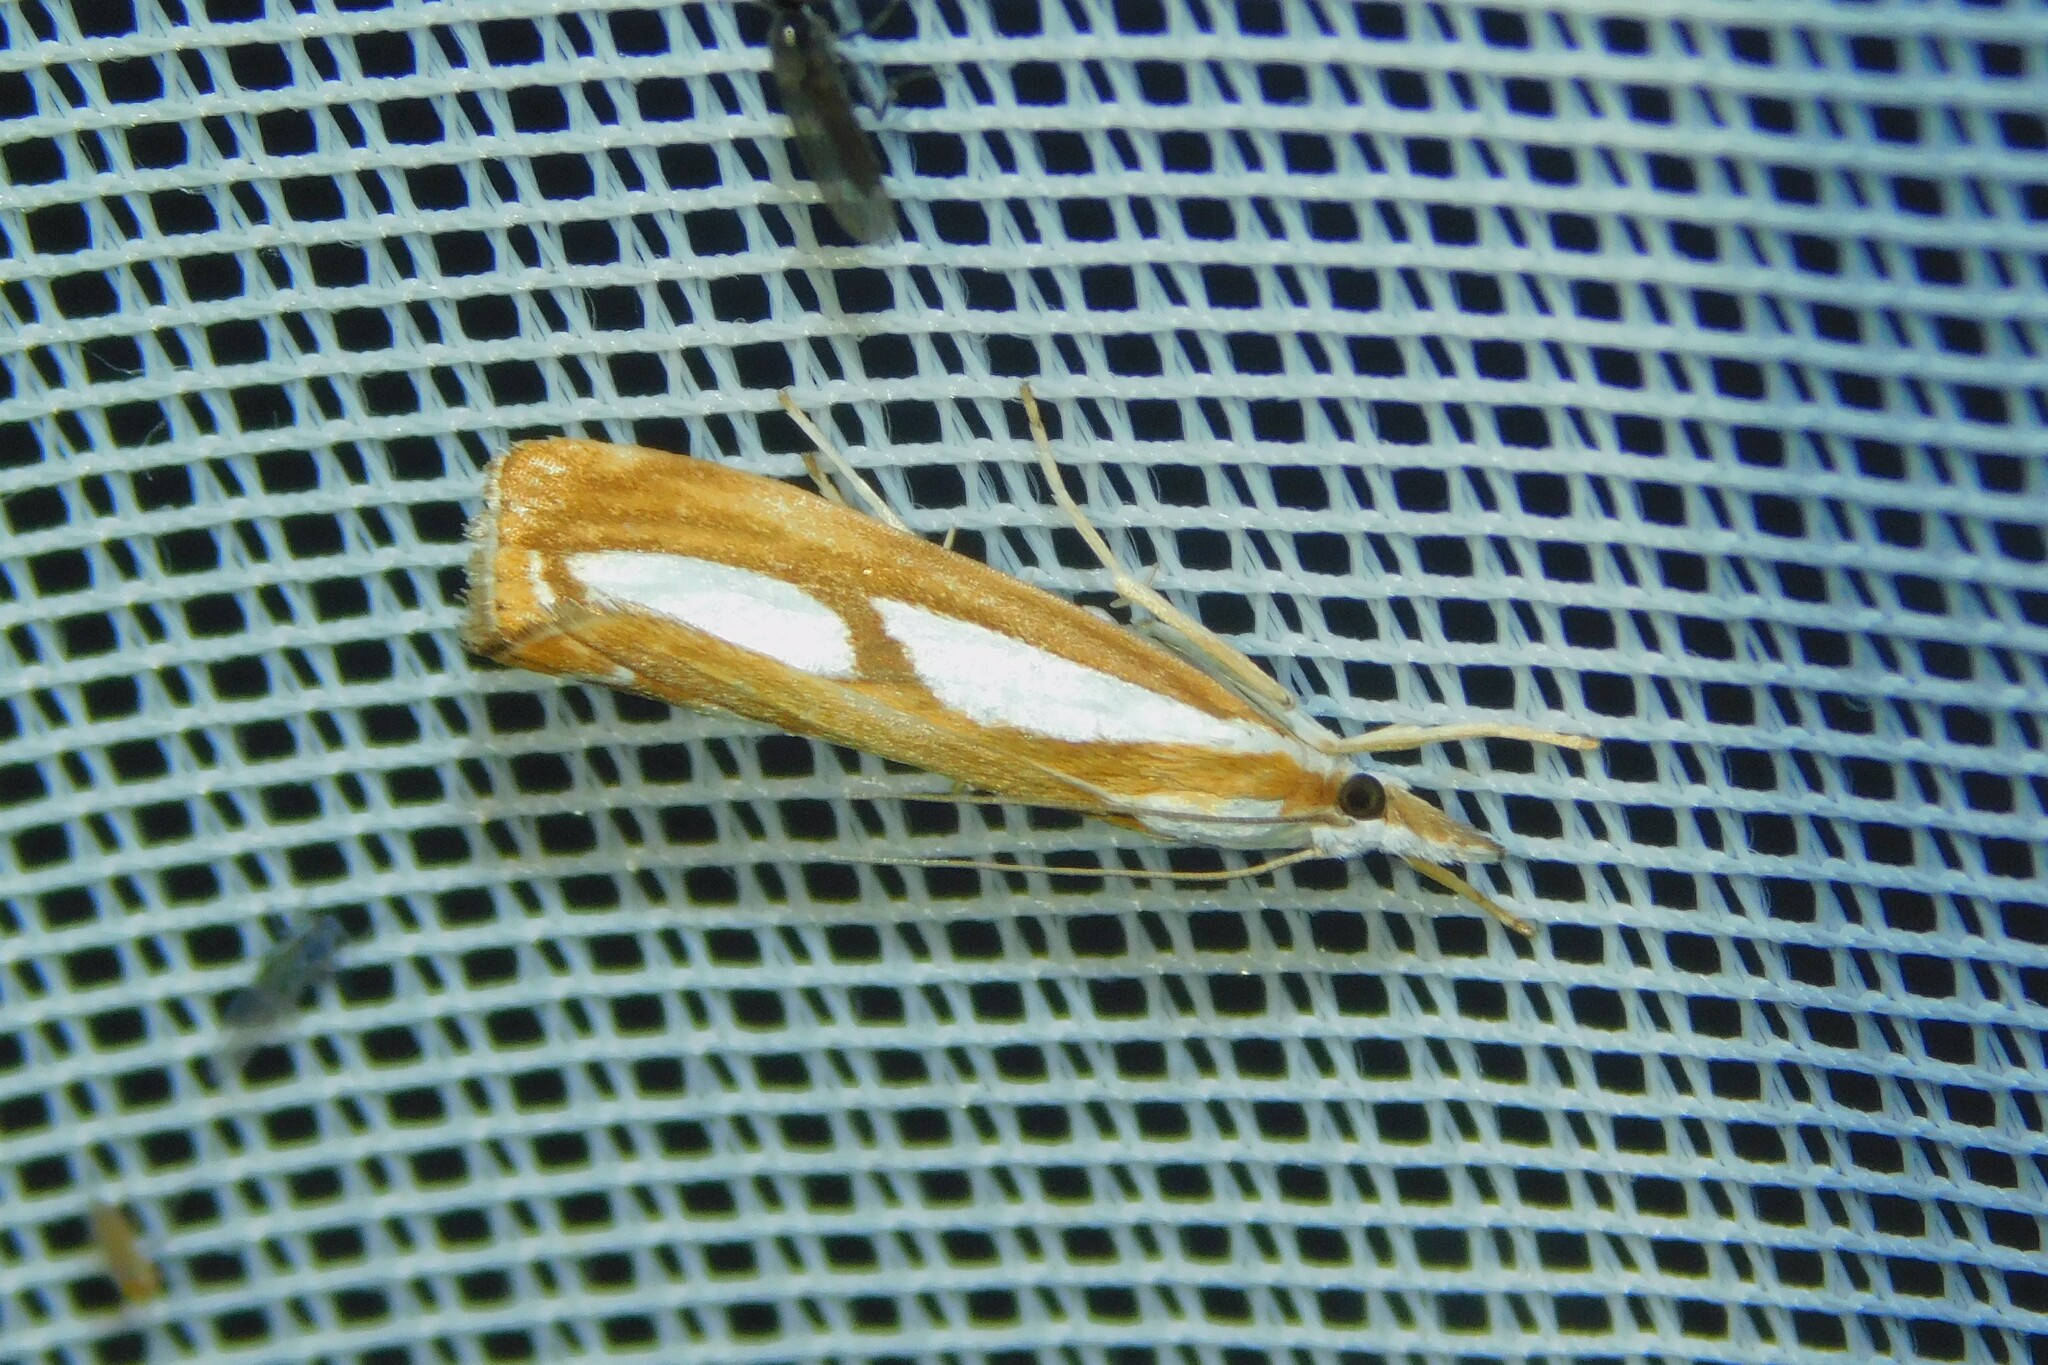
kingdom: Animalia
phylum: Arthropoda
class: Insecta
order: Lepidoptera
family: Crambidae
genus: Catoptria
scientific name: Catoptria
